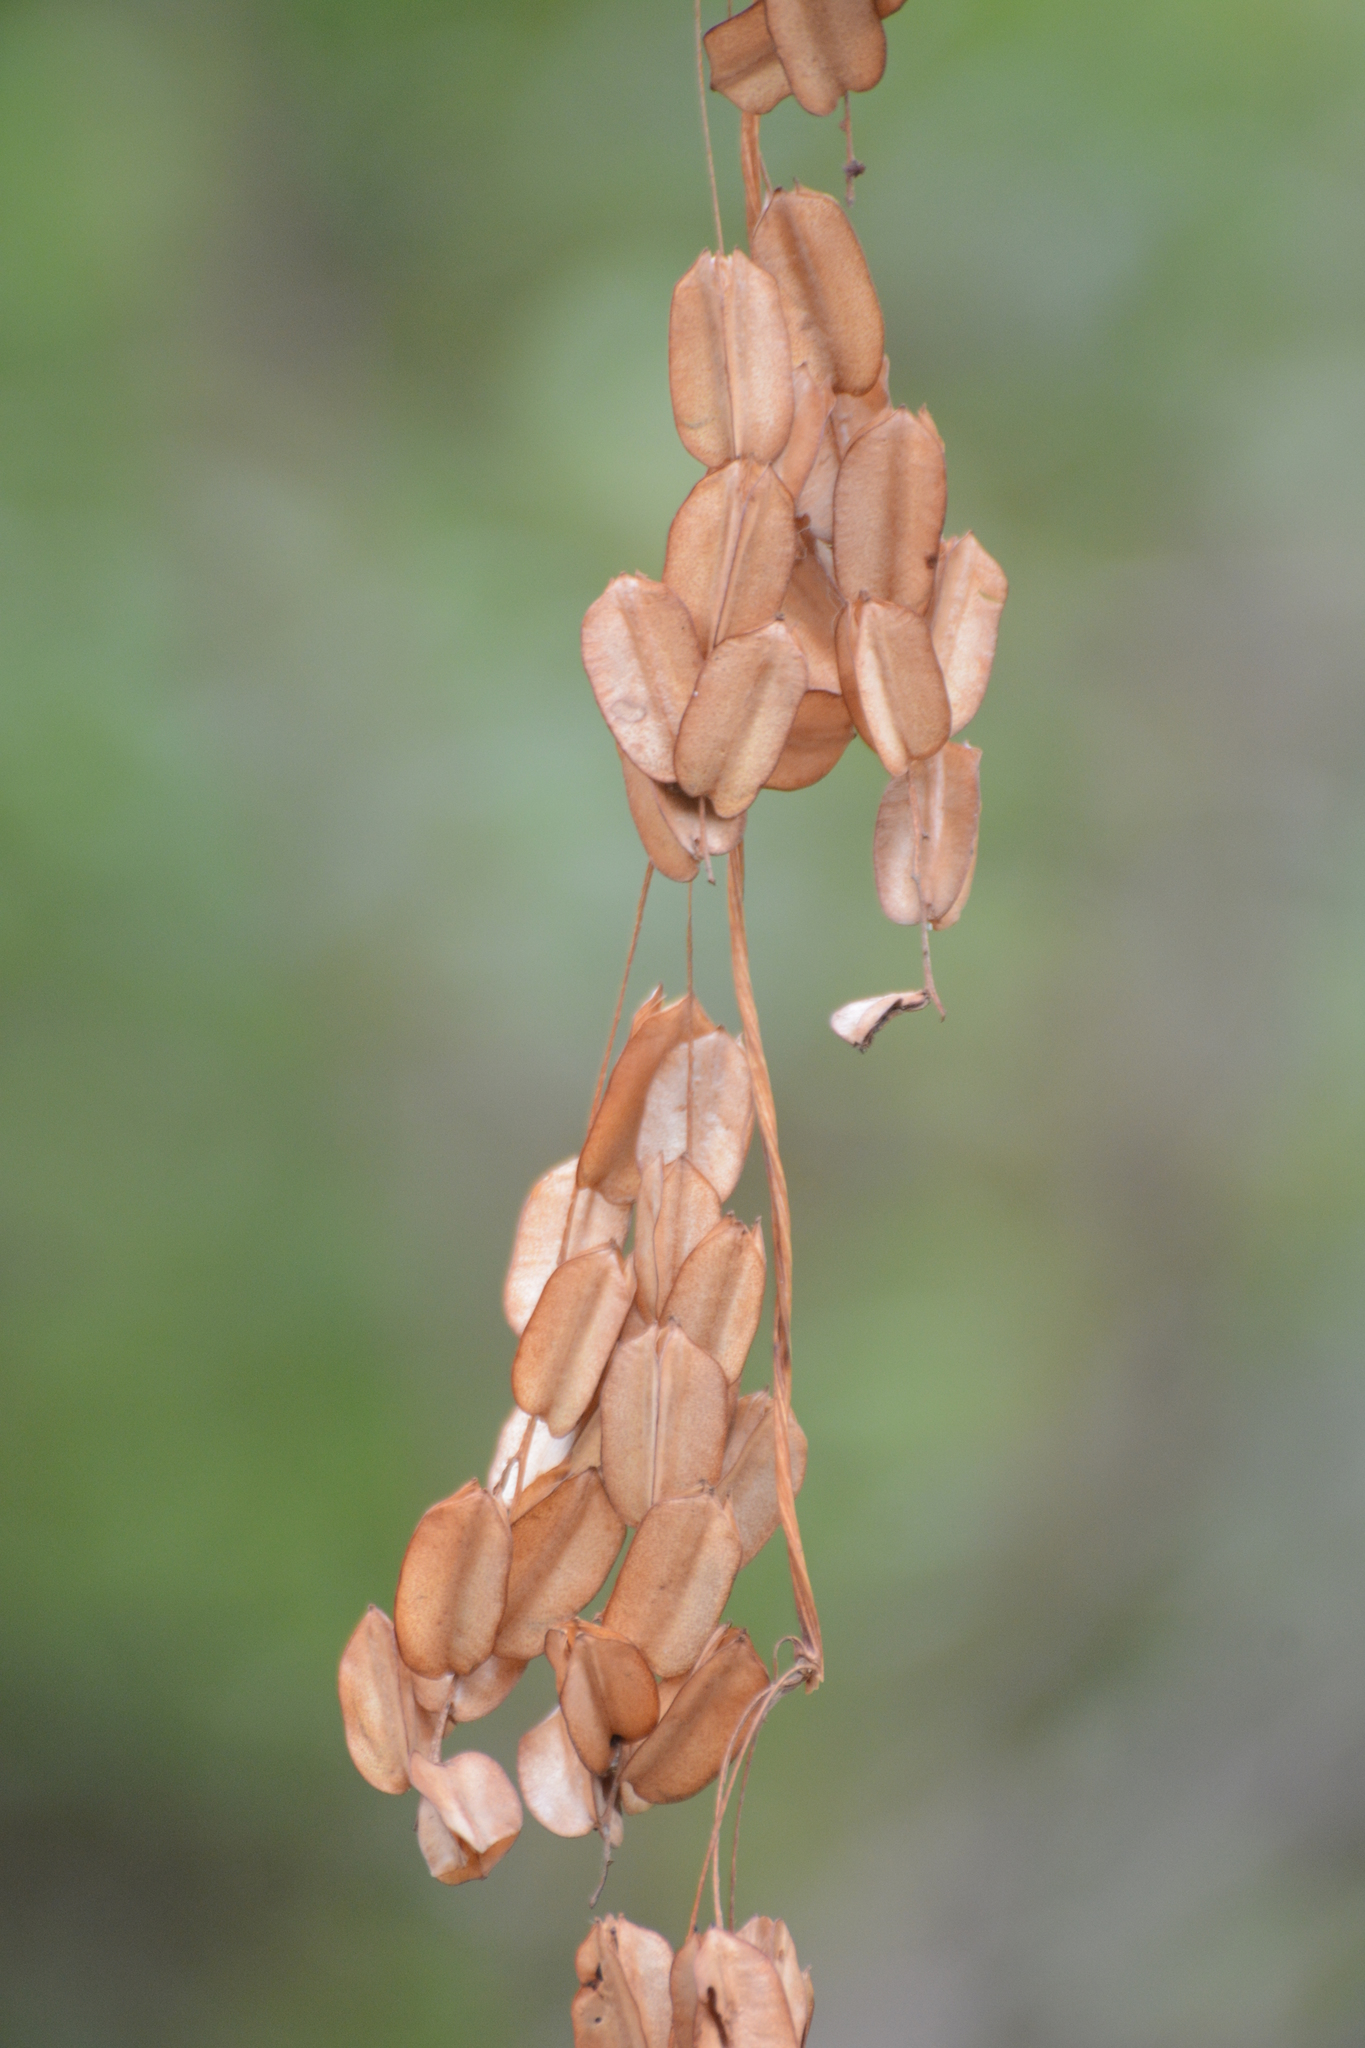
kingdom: Plantae
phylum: Tracheophyta
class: Liliopsida
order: Dioscoreales
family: Dioscoreaceae
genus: Dioscorea
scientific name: Dioscorea bulbifera
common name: Air yam
